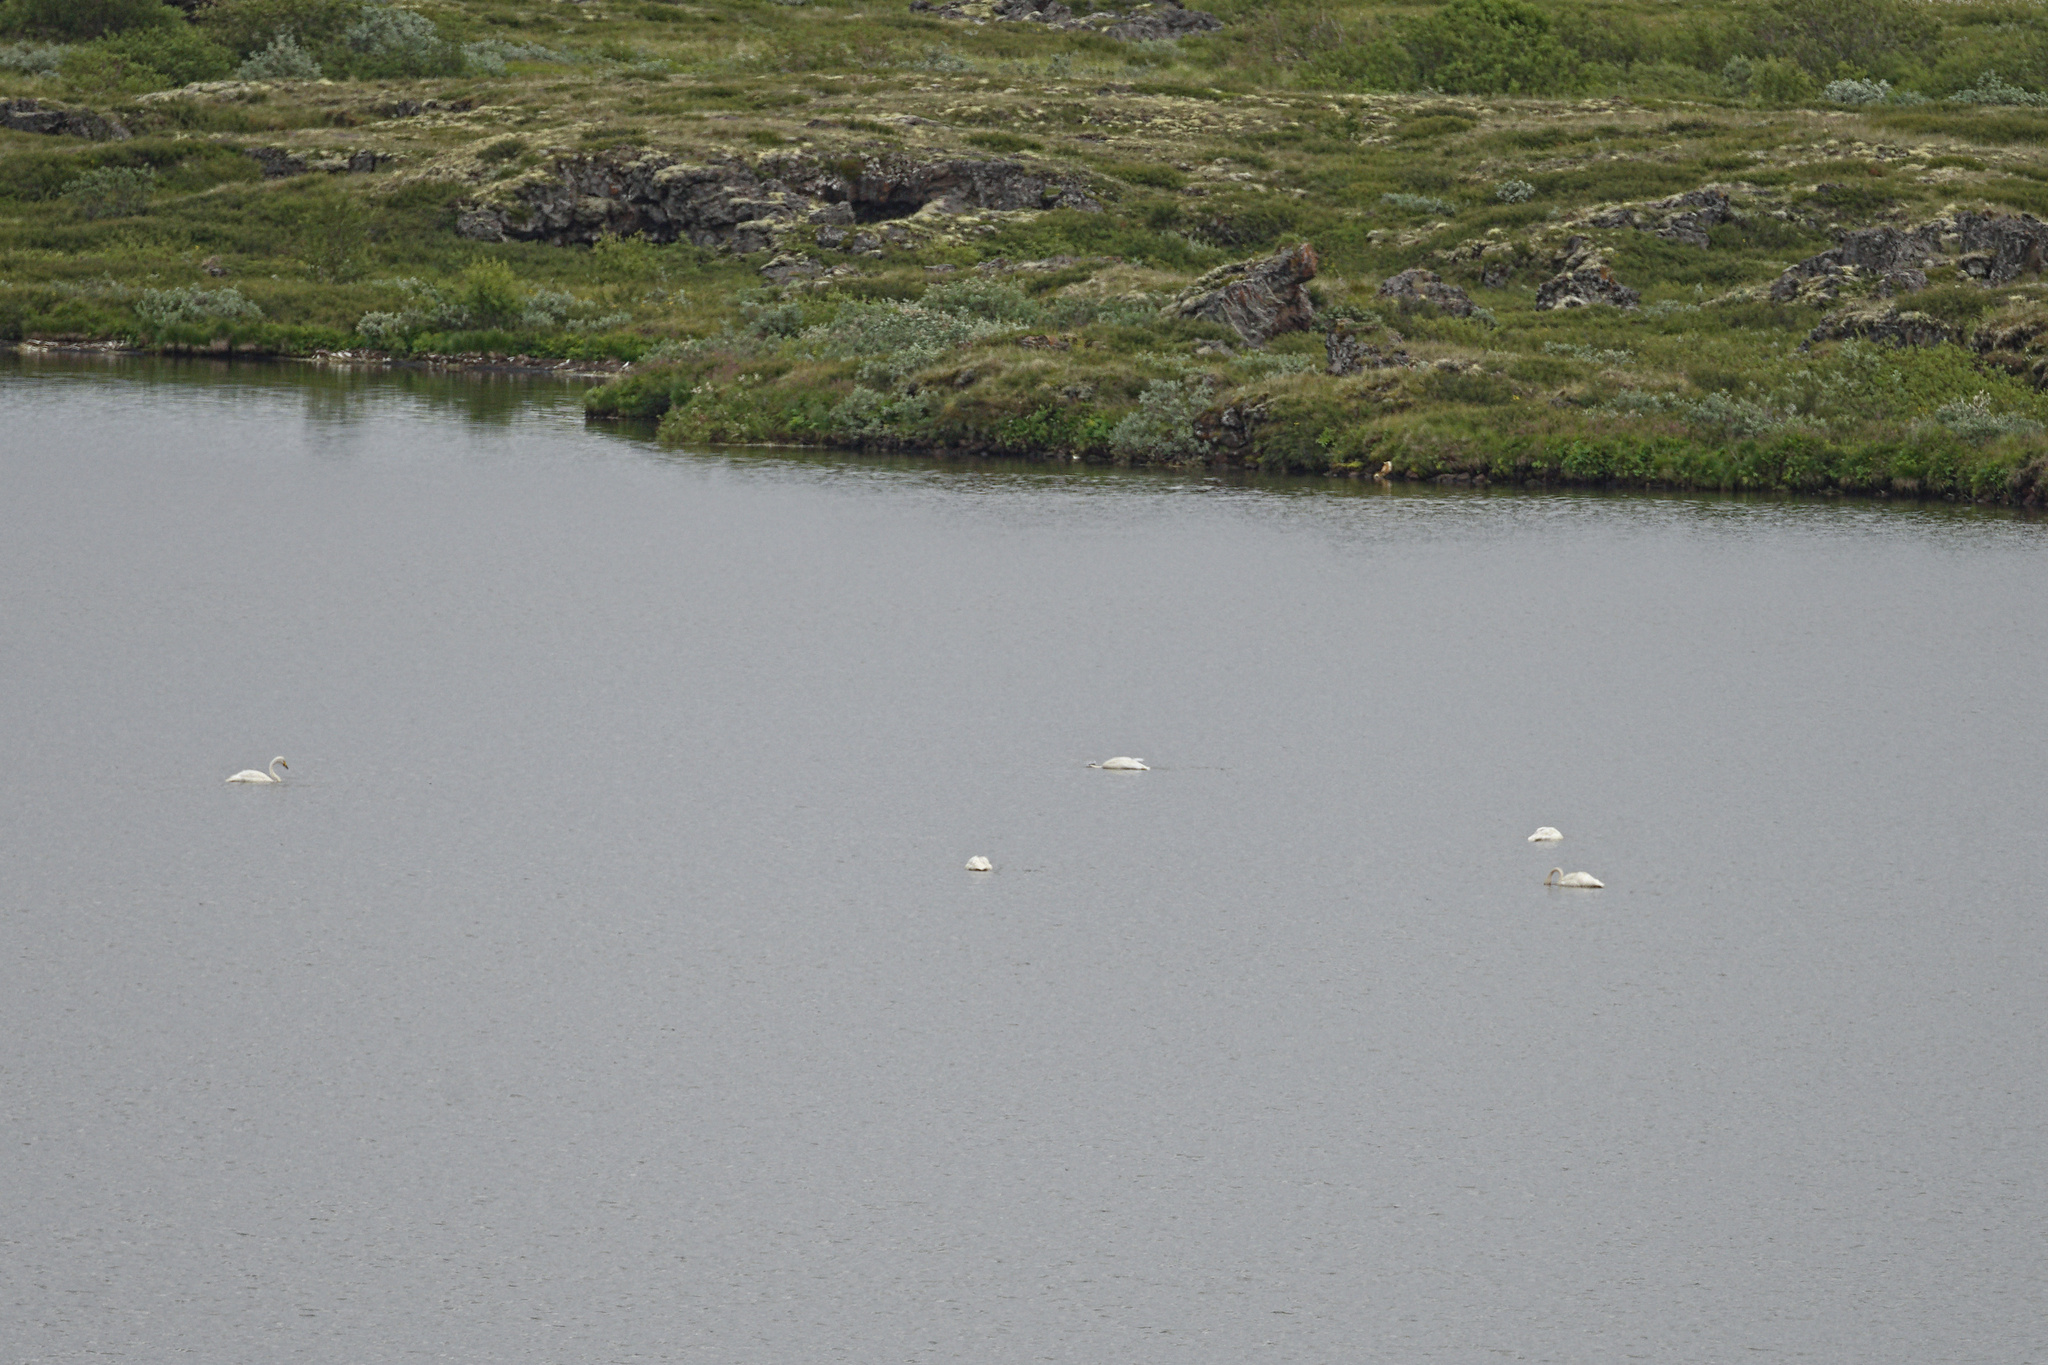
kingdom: Animalia
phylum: Chordata
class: Aves
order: Anseriformes
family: Anatidae
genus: Cygnus
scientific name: Cygnus cygnus
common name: Whooper swan
